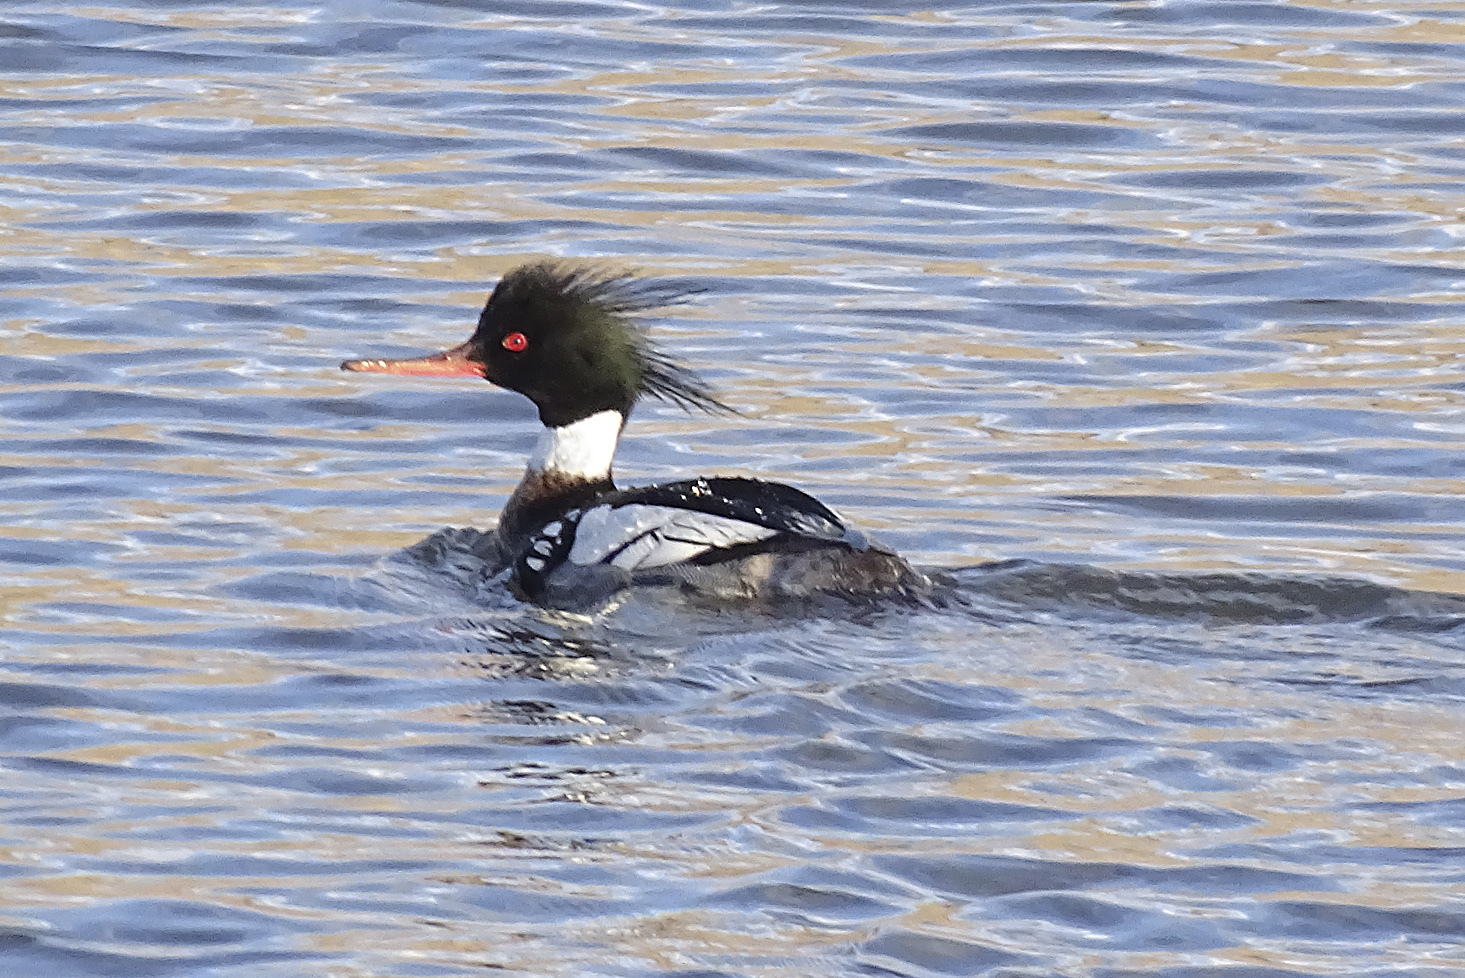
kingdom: Animalia
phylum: Chordata
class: Aves
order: Anseriformes
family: Anatidae
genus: Mergus
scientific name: Mergus serrator
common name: Red-breasted merganser
